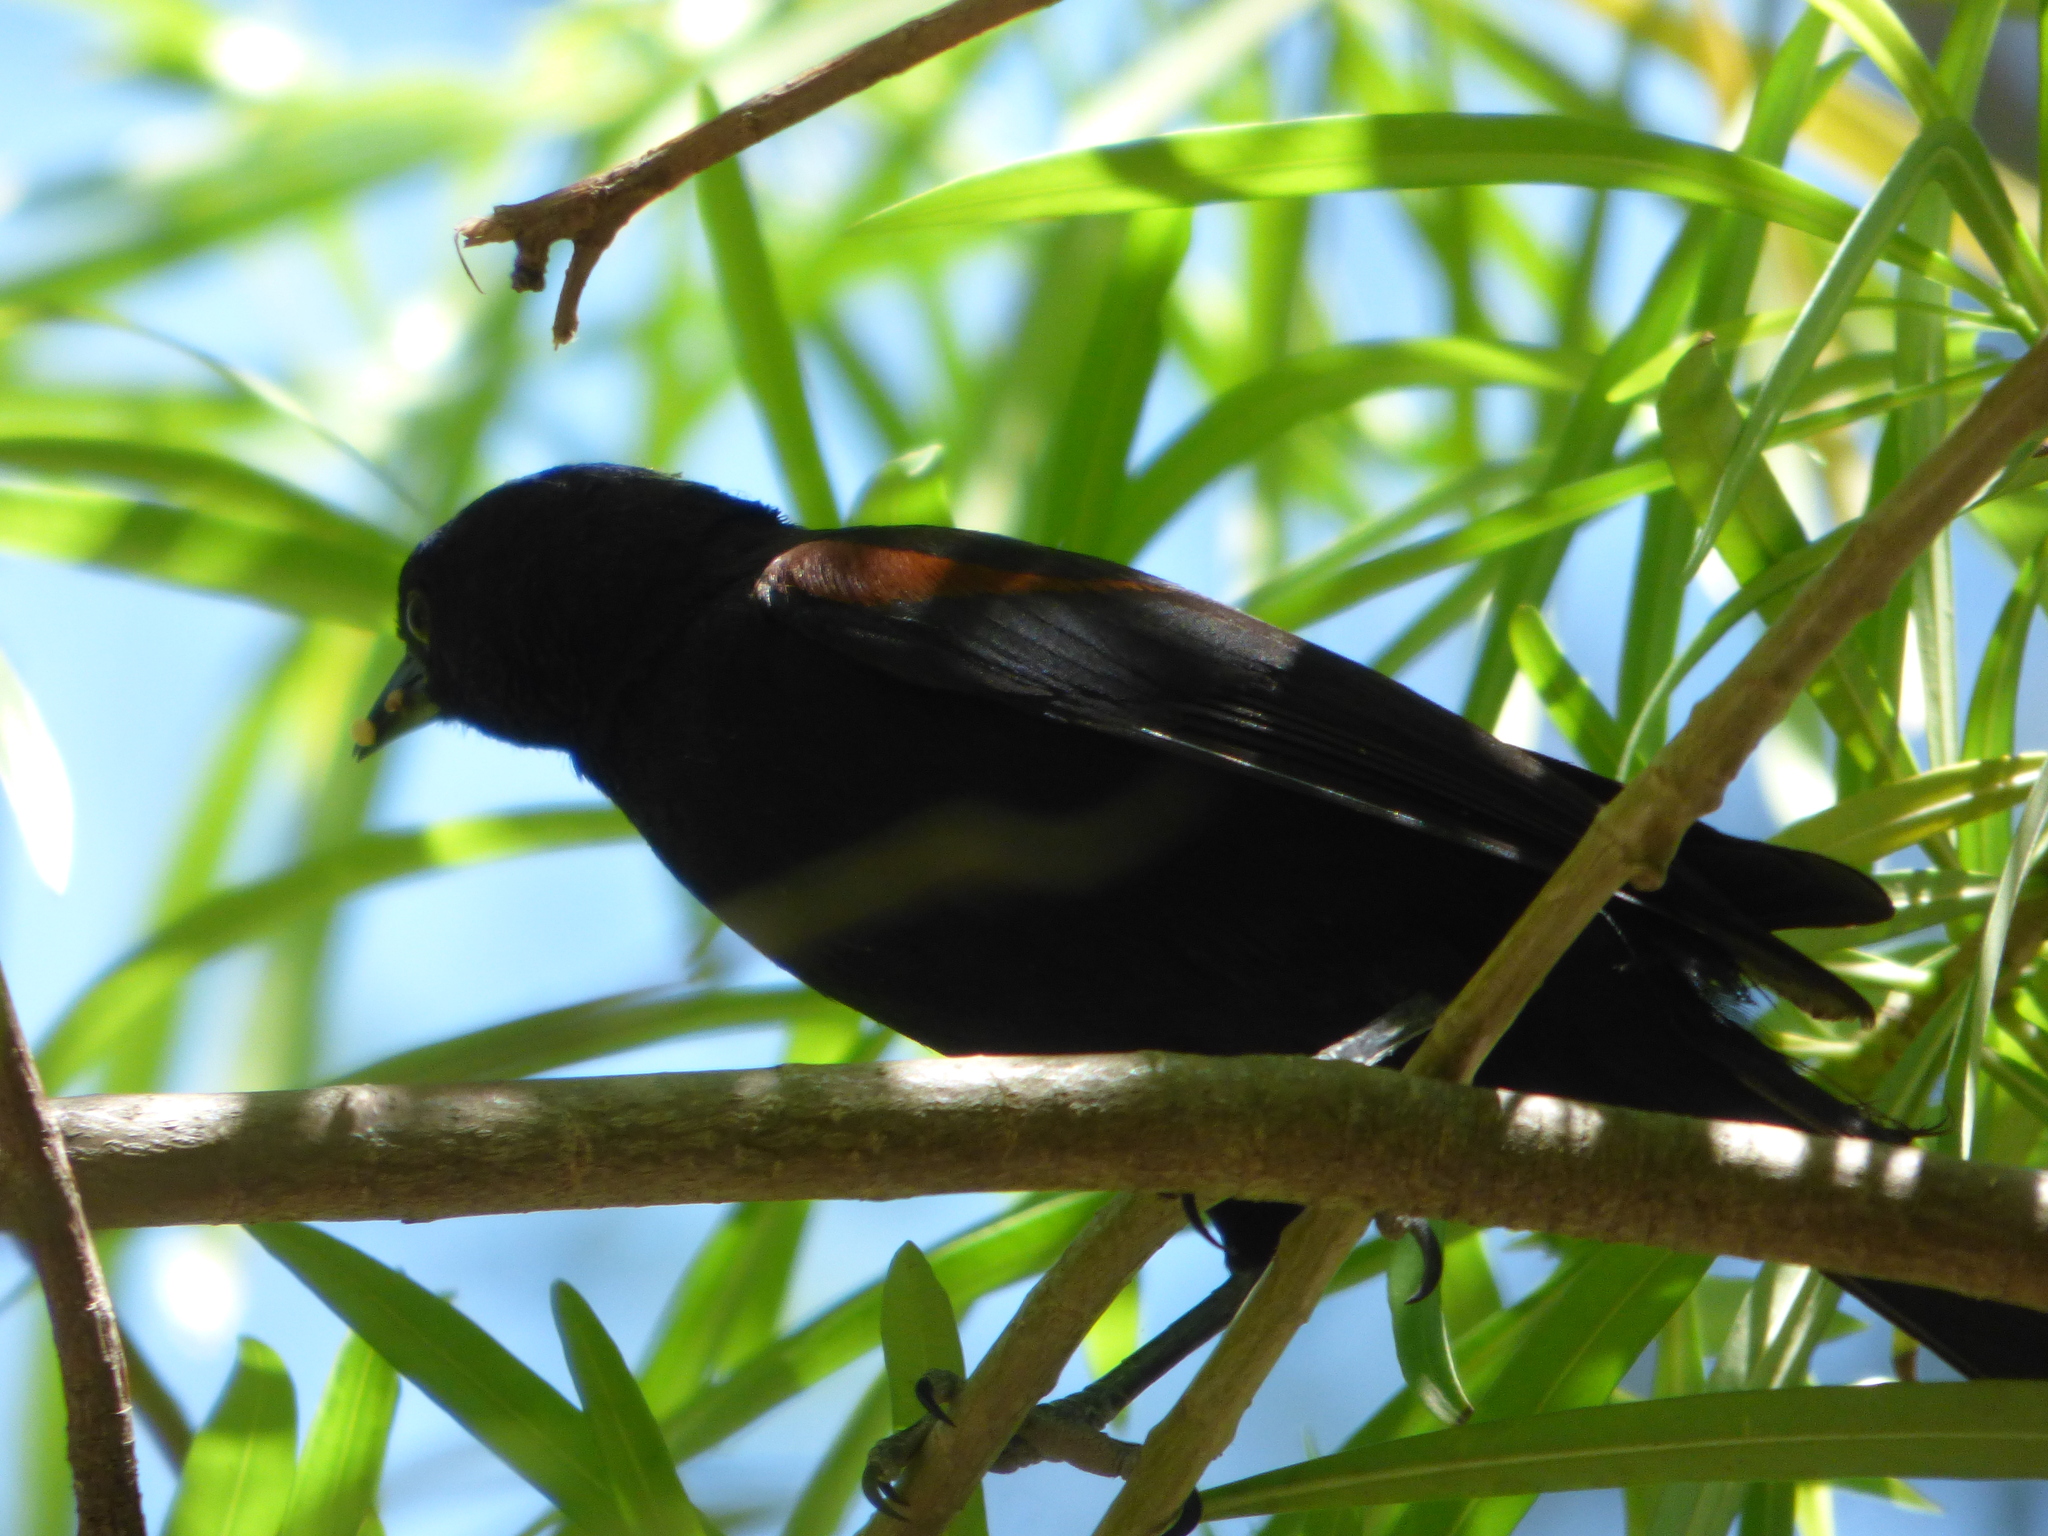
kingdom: Animalia
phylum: Chordata
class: Aves
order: Passeriformes
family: Icteridae
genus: Icterus
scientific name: Icterus cayanensis
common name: Epaulet oriole
